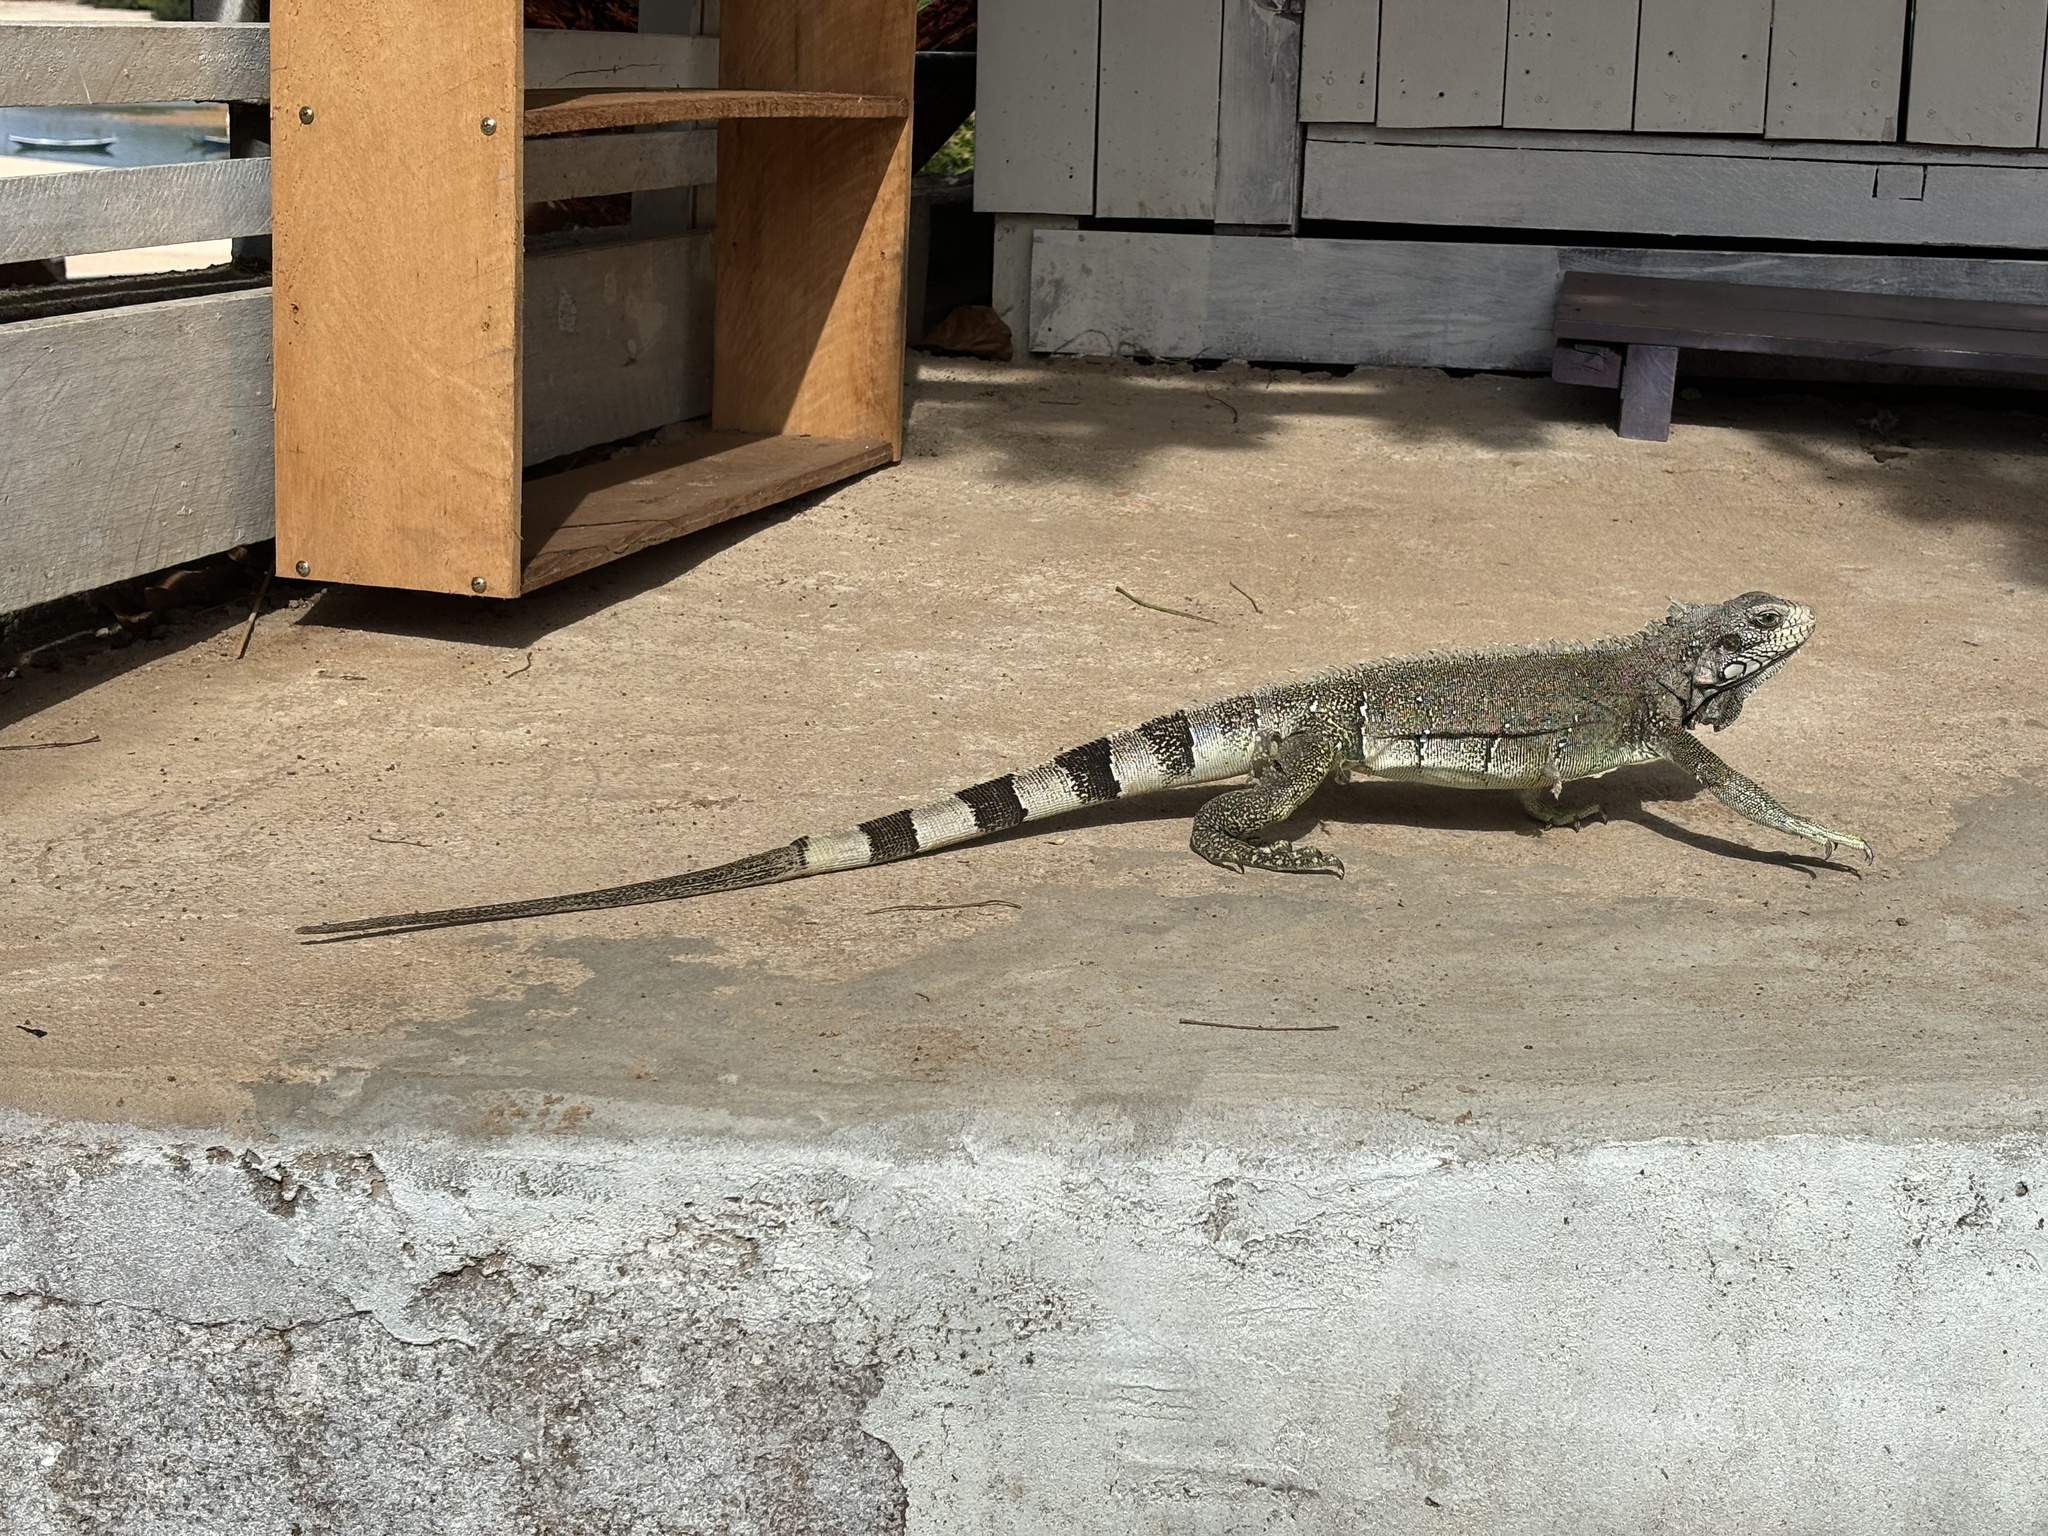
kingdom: Animalia
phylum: Chordata
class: Squamata
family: Iguanidae
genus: Iguana
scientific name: Iguana iguana
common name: Green iguana
